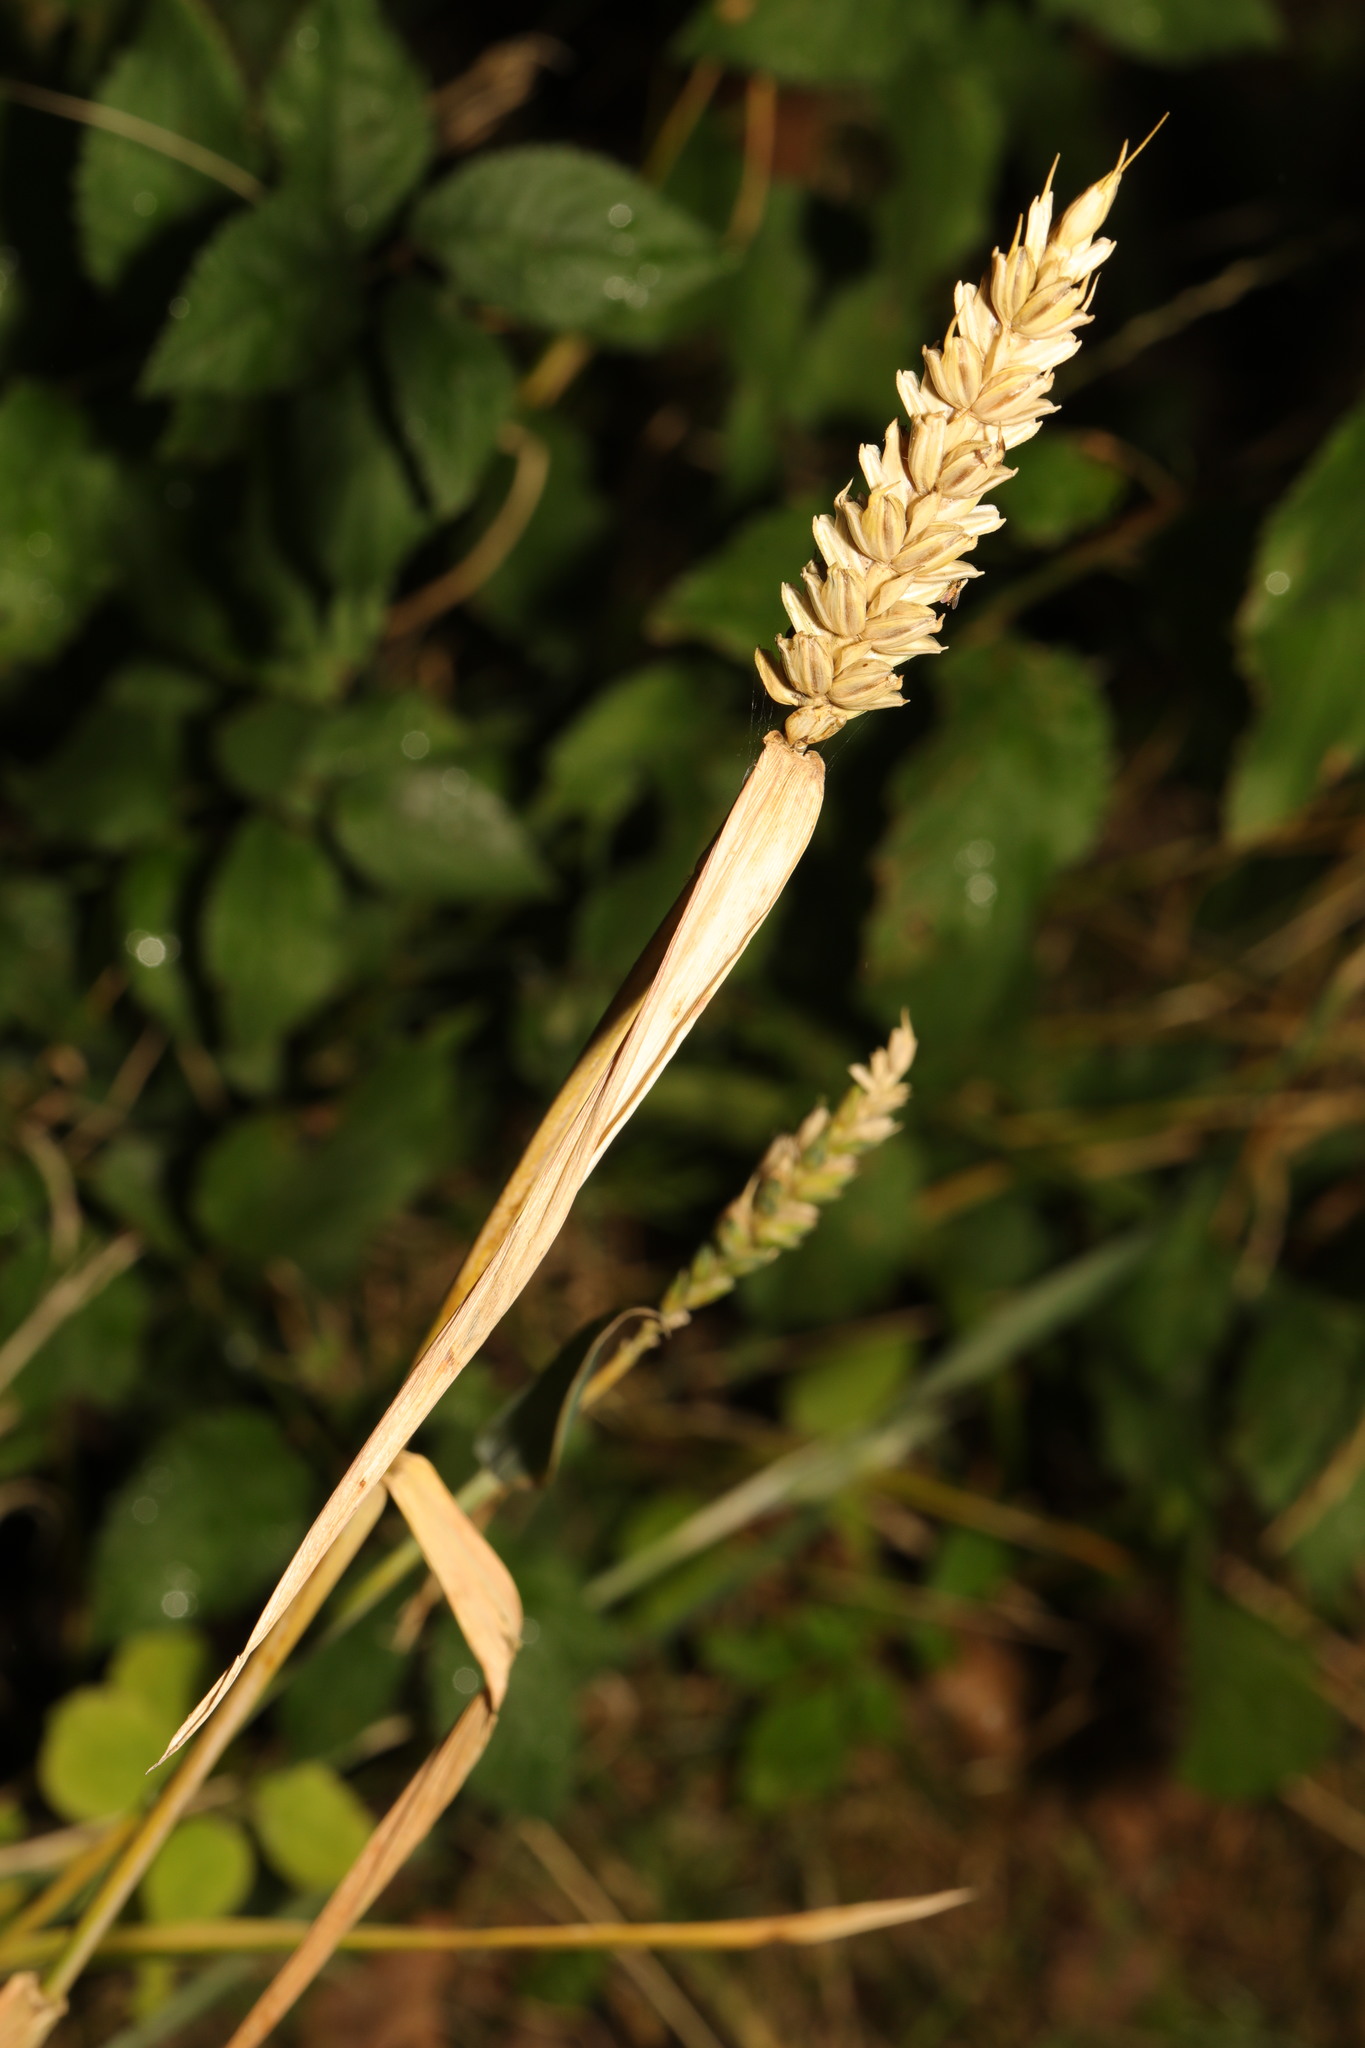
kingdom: Plantae
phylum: Tracheophyta
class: Liliopsida
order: Poales
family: Poaceae
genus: Triticum
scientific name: Triticum aestivum
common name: Common wheat
